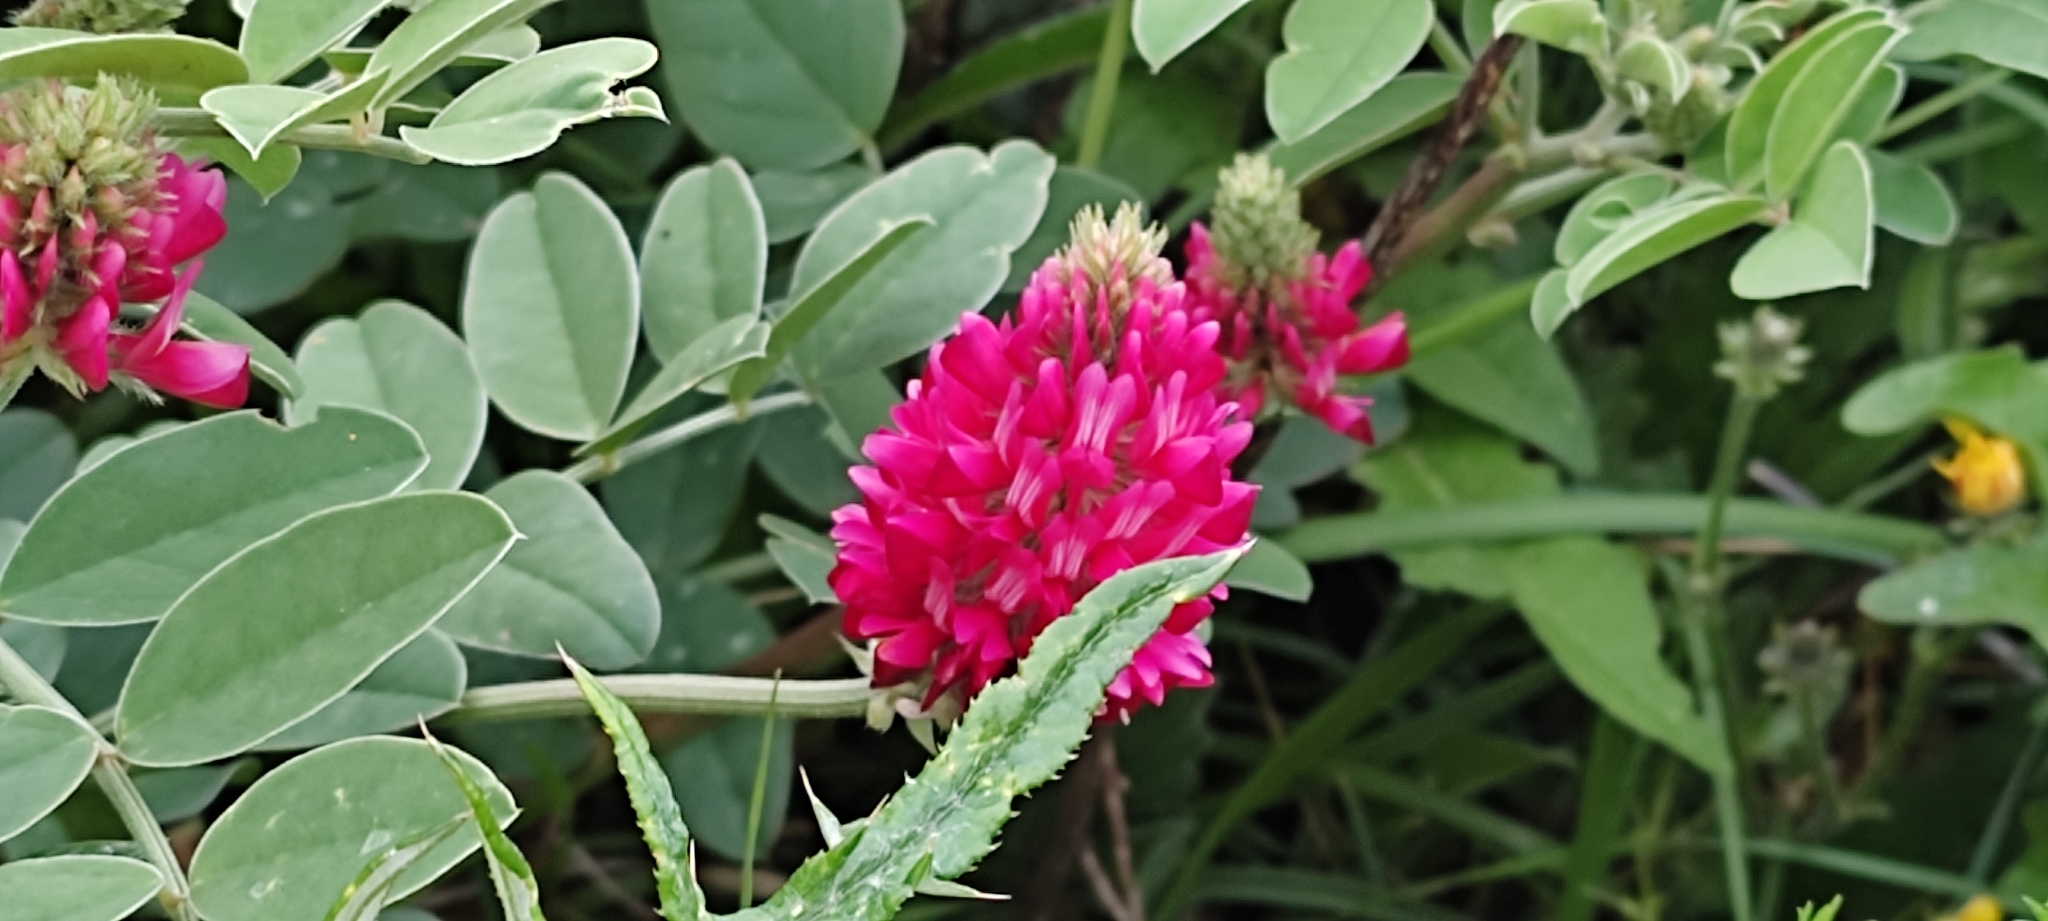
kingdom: Plantae
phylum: Tracheophyta
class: Magnoliopsida
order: Fabales
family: Fabaceae
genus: Sulla
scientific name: Sulla coronaria
